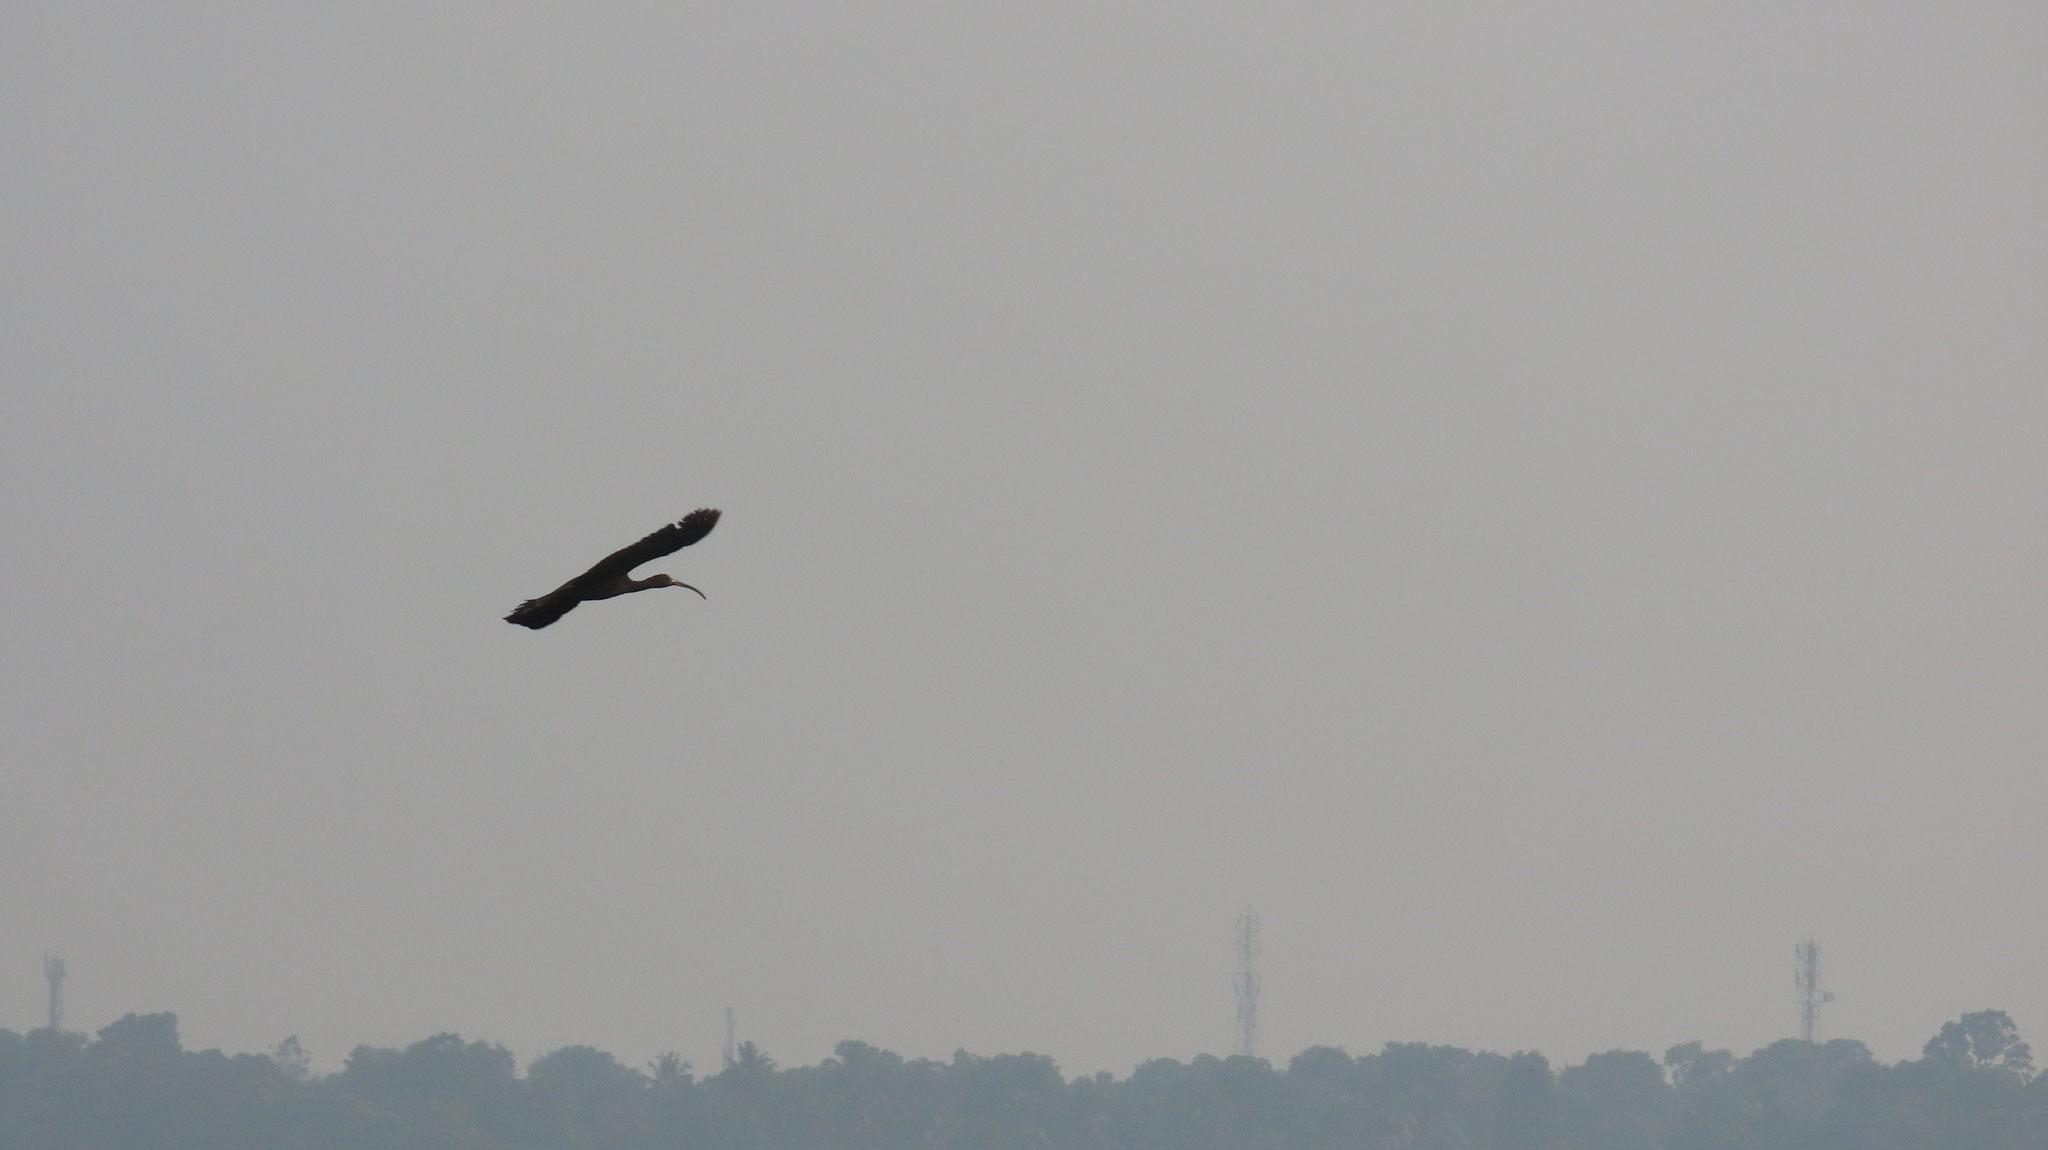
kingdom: Animalia
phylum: Chordata
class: Aves
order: Pelecaniformes
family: Threskiornithidae
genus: Plegadis
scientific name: Plegadis falcinellus
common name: Glossy ibis
